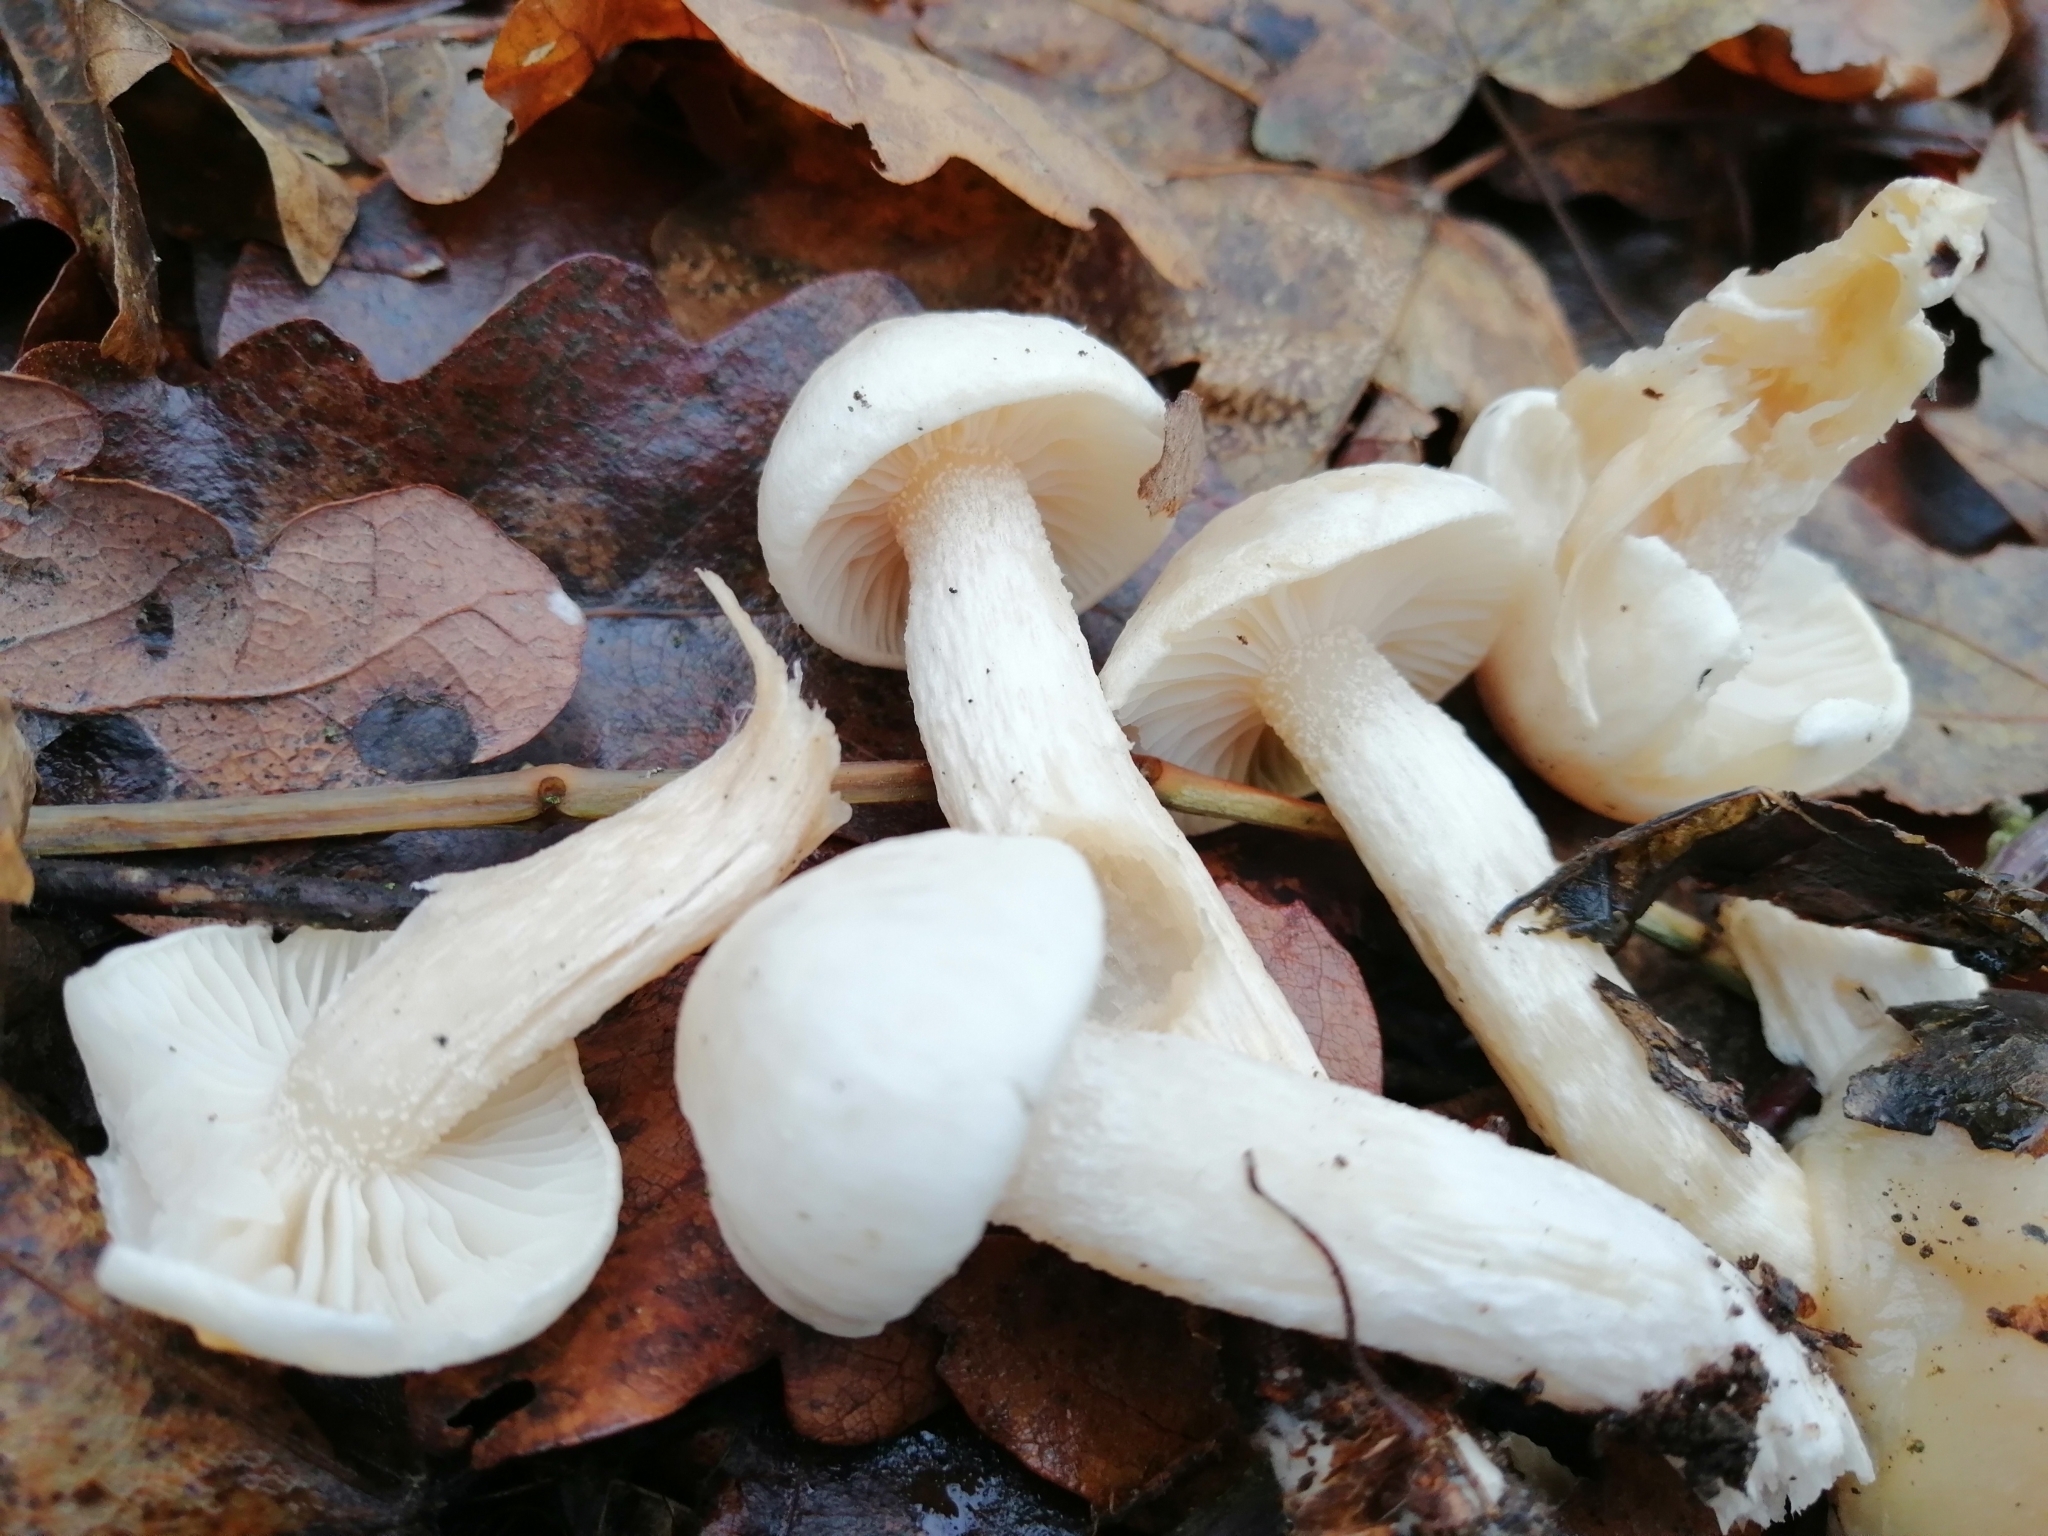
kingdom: Fungi
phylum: Basidiomycota
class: Agaricomycetes
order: Agaricales
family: Hygrophoraceae
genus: Hygrophorus
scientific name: Hygrophorus cossus
